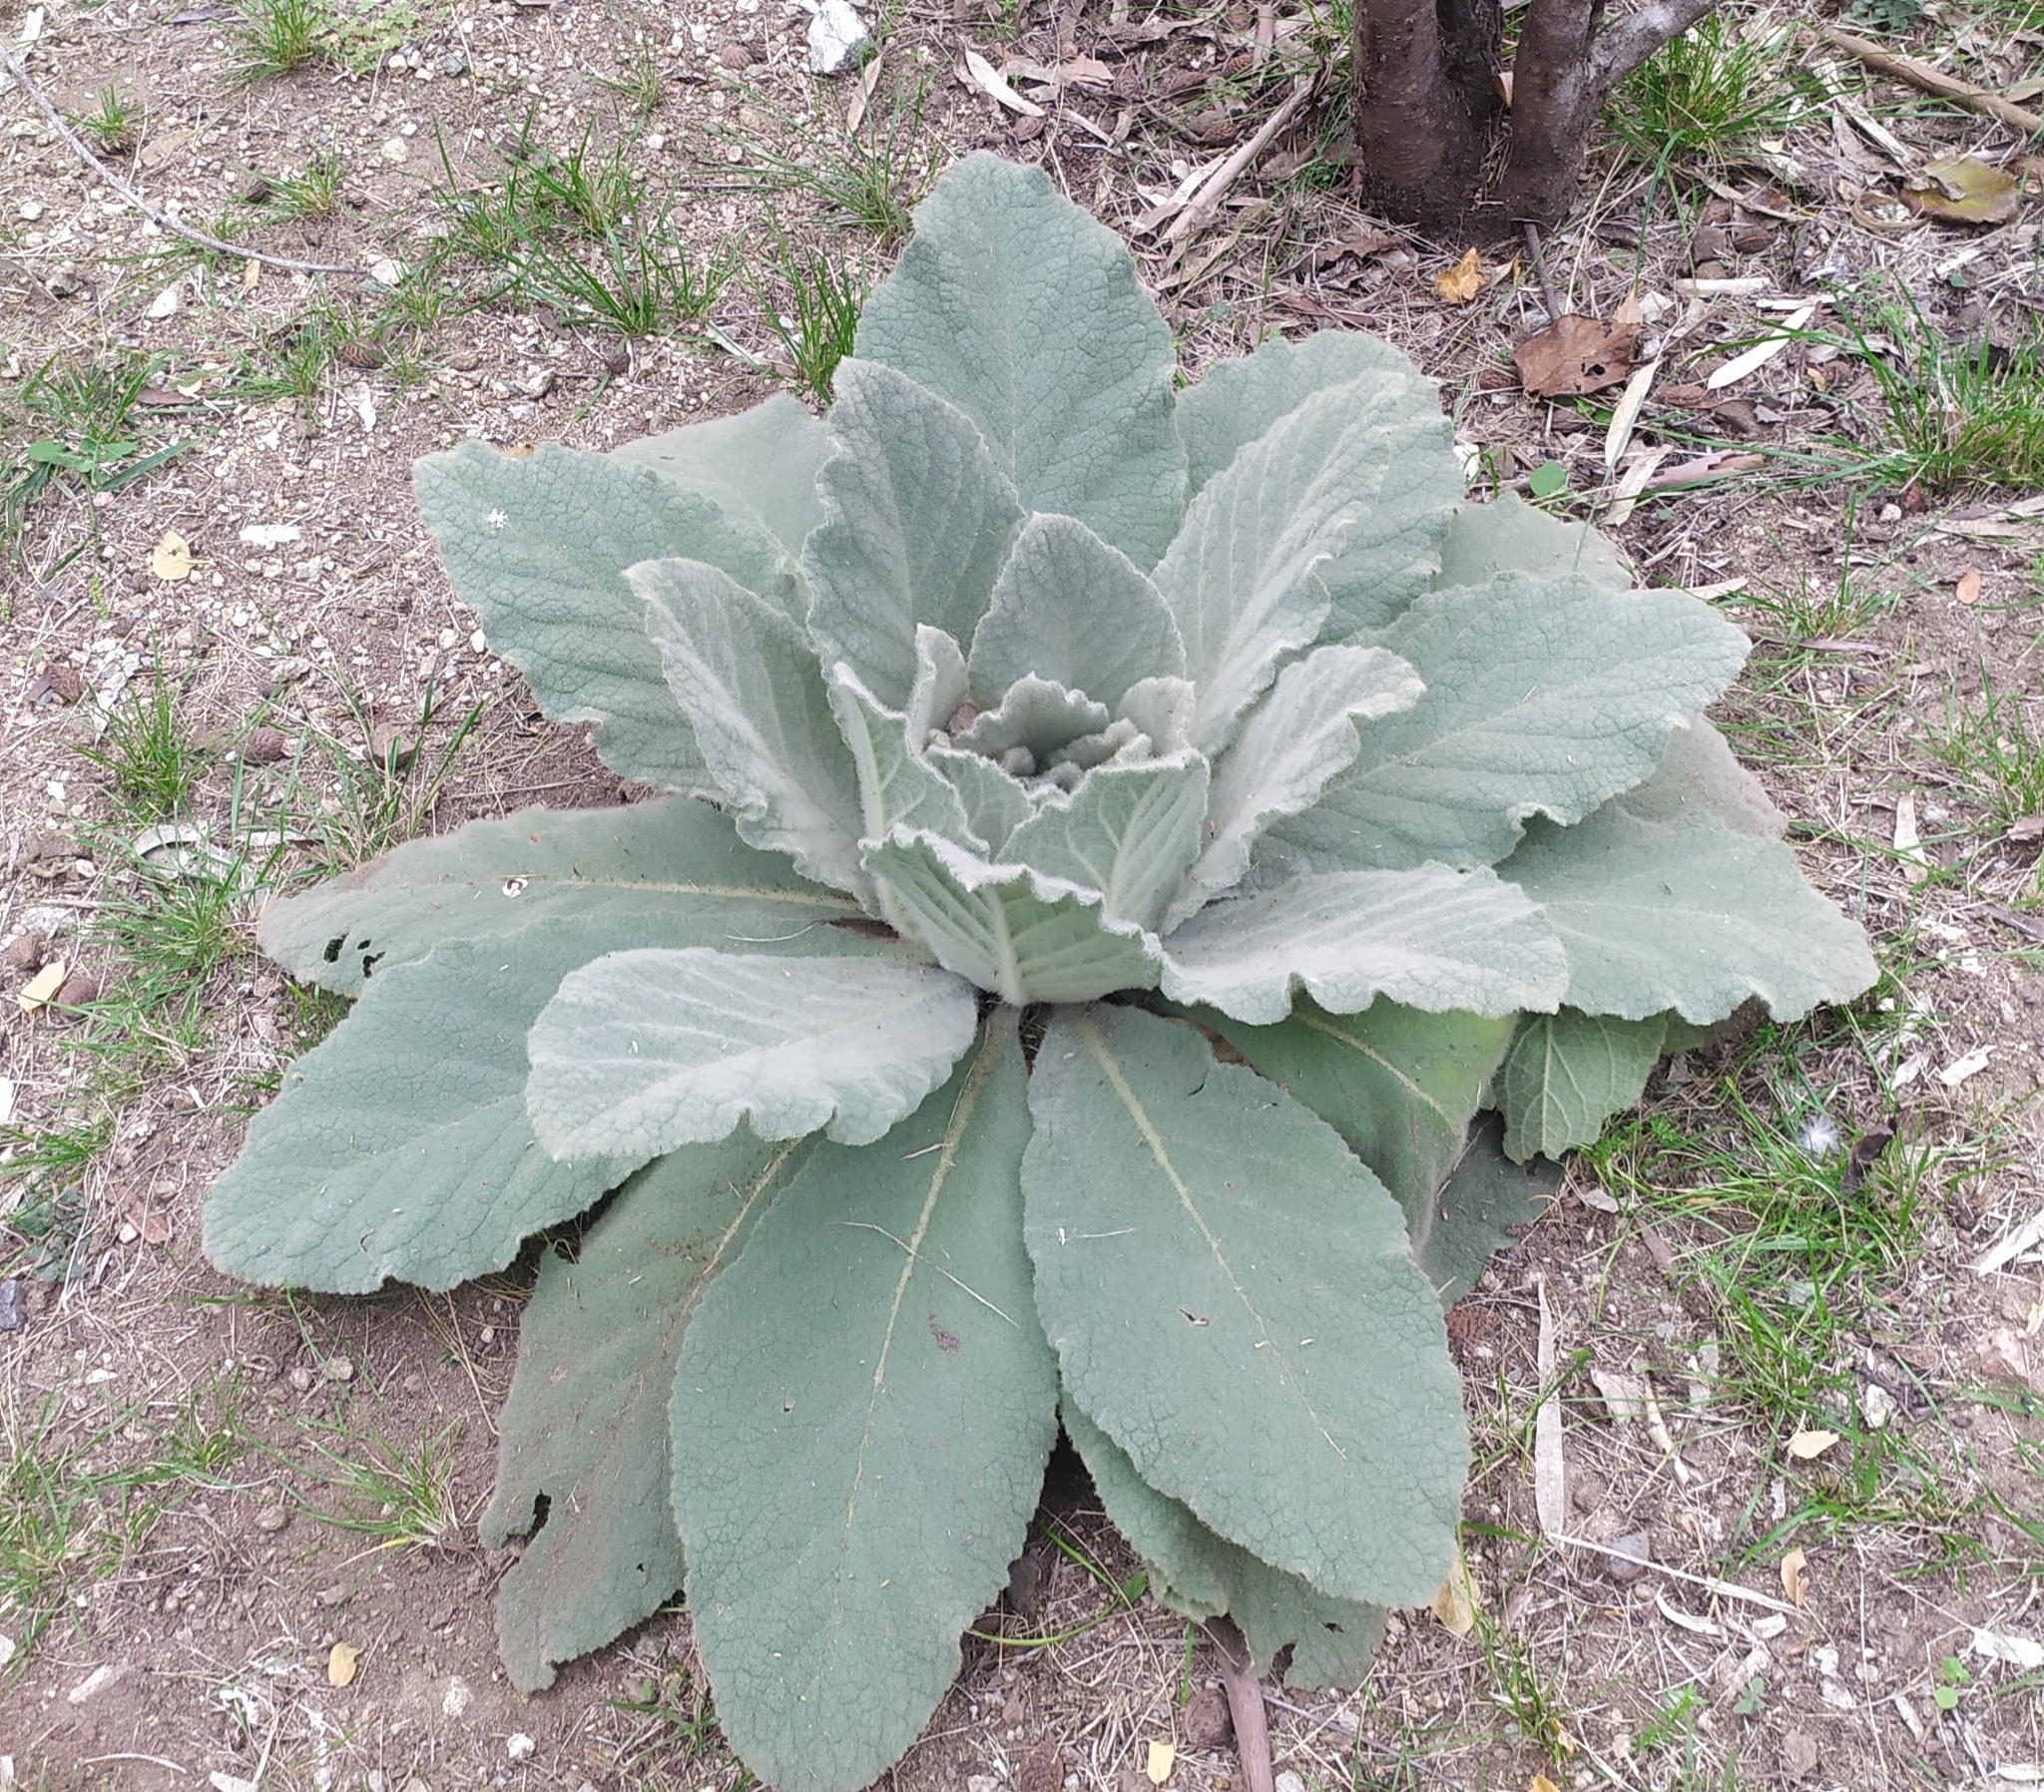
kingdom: Plantae
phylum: Tracheophyta
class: Magnoliopsida
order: Lamiales
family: Scrophulariaceae
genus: Verbascum
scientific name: Verbascum thapsus
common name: Common mullein
